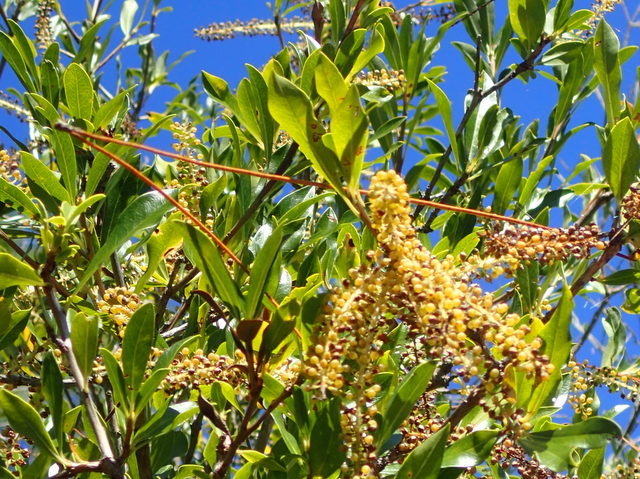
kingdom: Plantae
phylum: Tracheophyta
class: Magnoliopsida
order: Ericales
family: Cyrillaceae
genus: Cyrilla
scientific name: Cyrilla racemiflora
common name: Black titi
